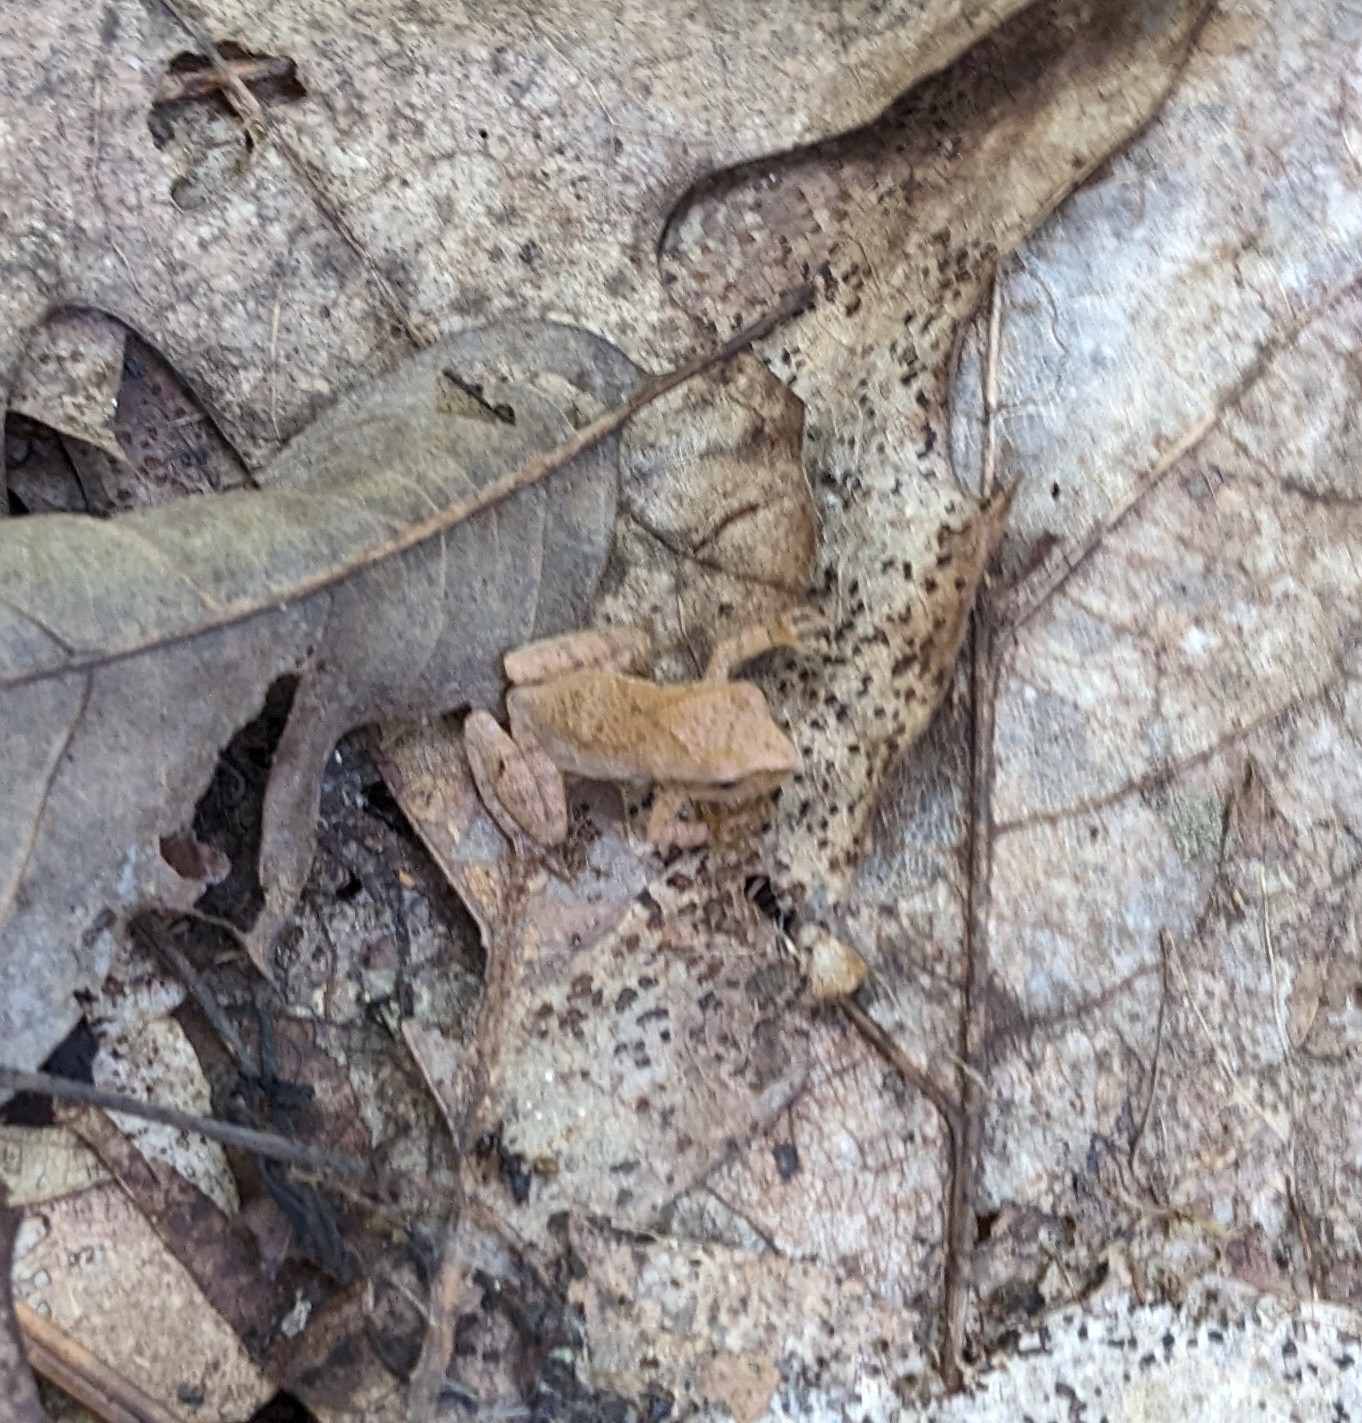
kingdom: Animalia
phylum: Chordata
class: Amphibia
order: Anura
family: Hylidae
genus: Pseudacris
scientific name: Pseudacris crucifer
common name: Spring peeper
